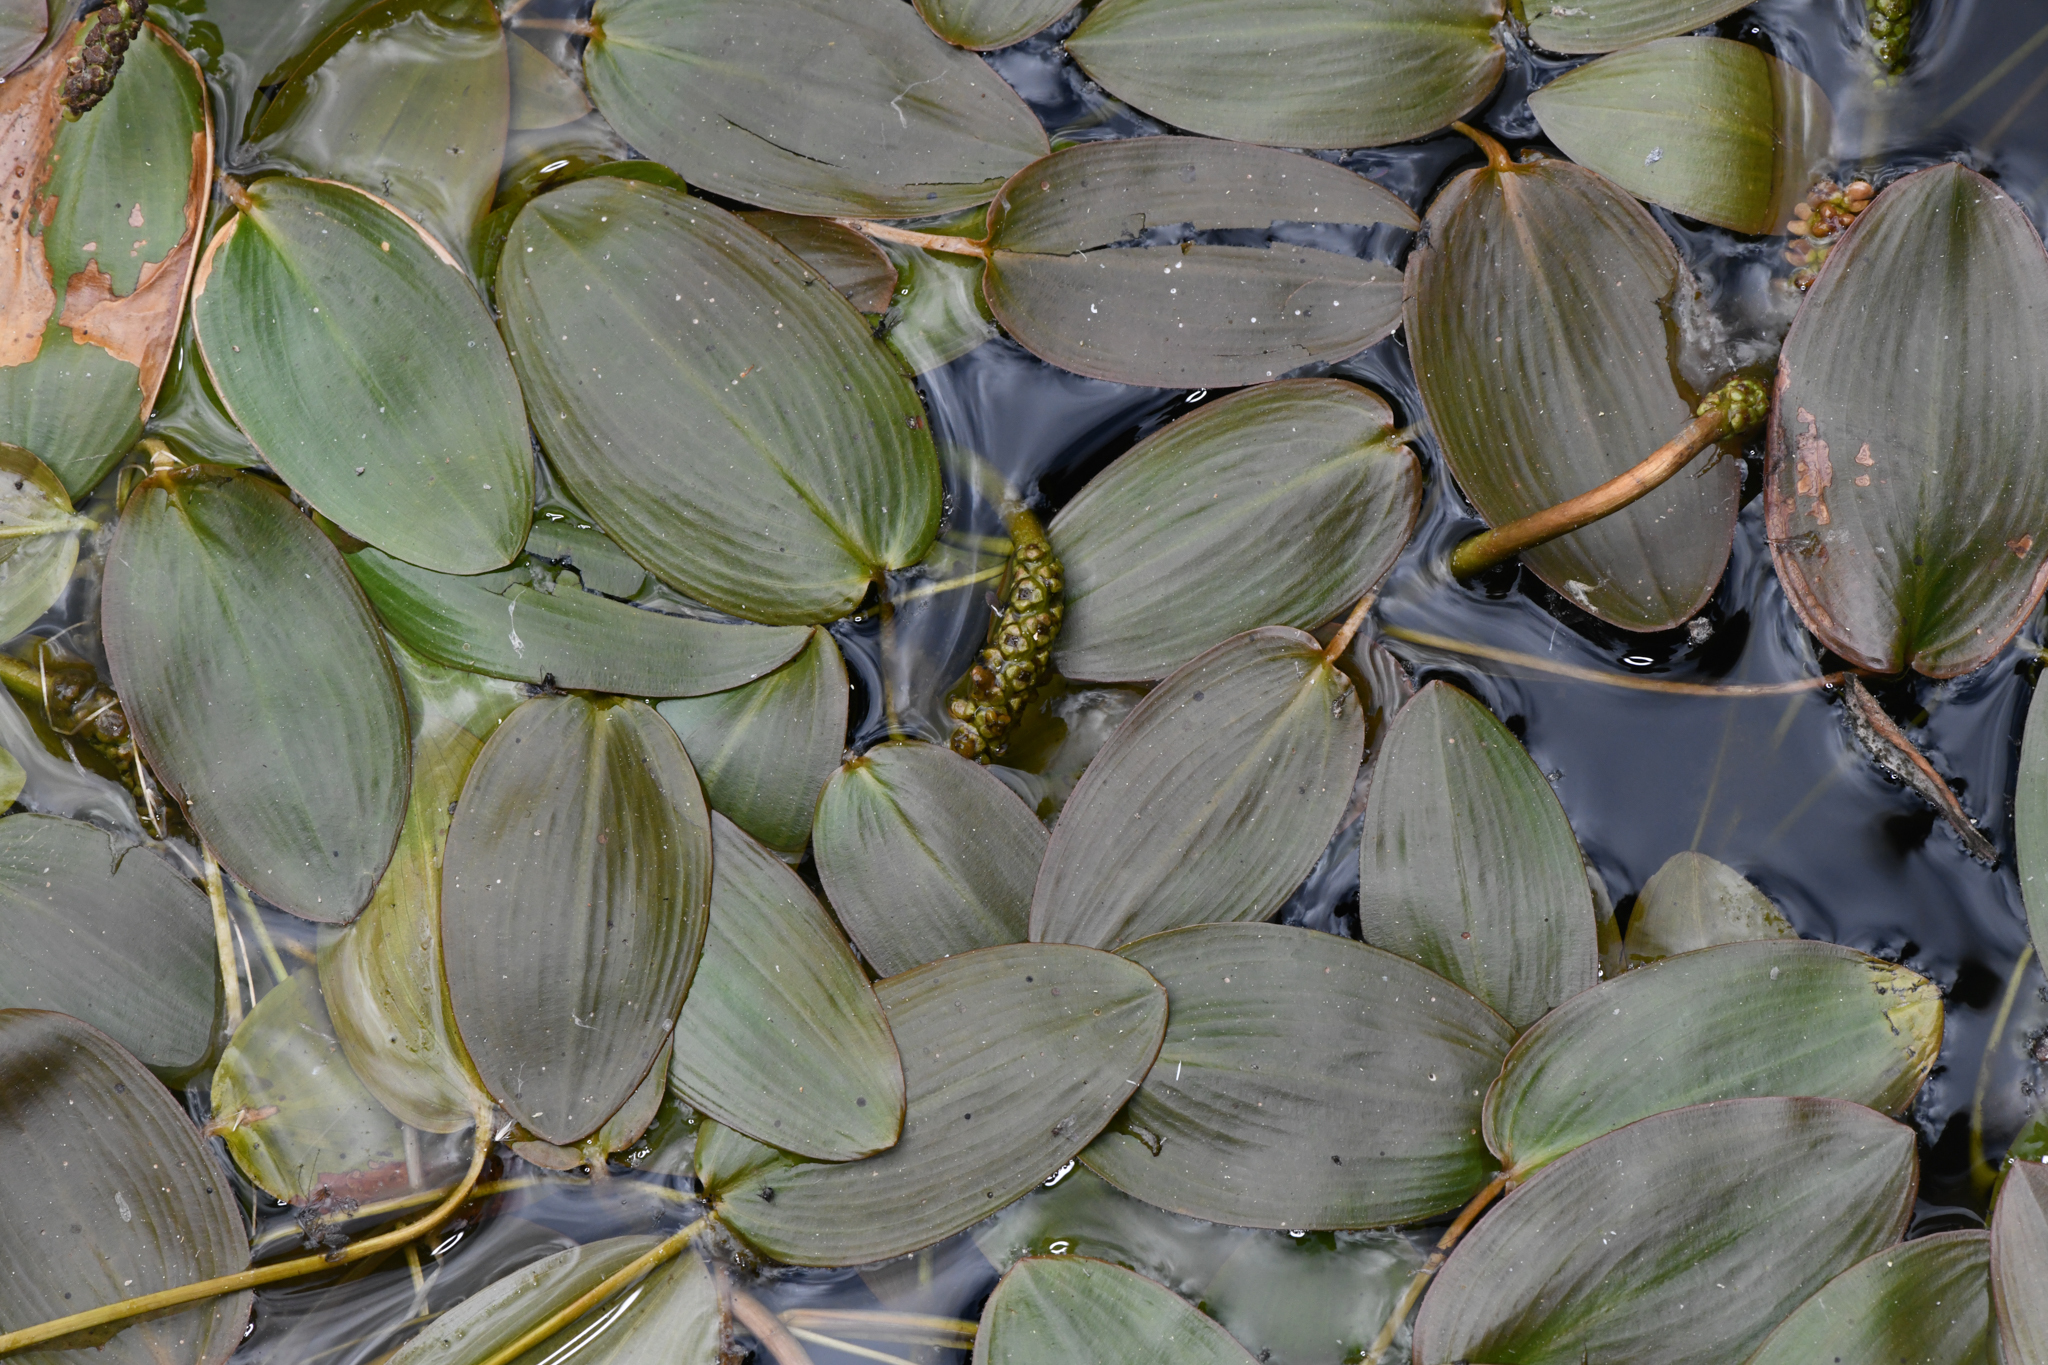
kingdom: Plantae
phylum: Tracheophyta
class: Liliopsida
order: Alismatales
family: Potamogetonaceae
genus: Potamogeton
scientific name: Potamogeton natans
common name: Broad-leaved pondweed
